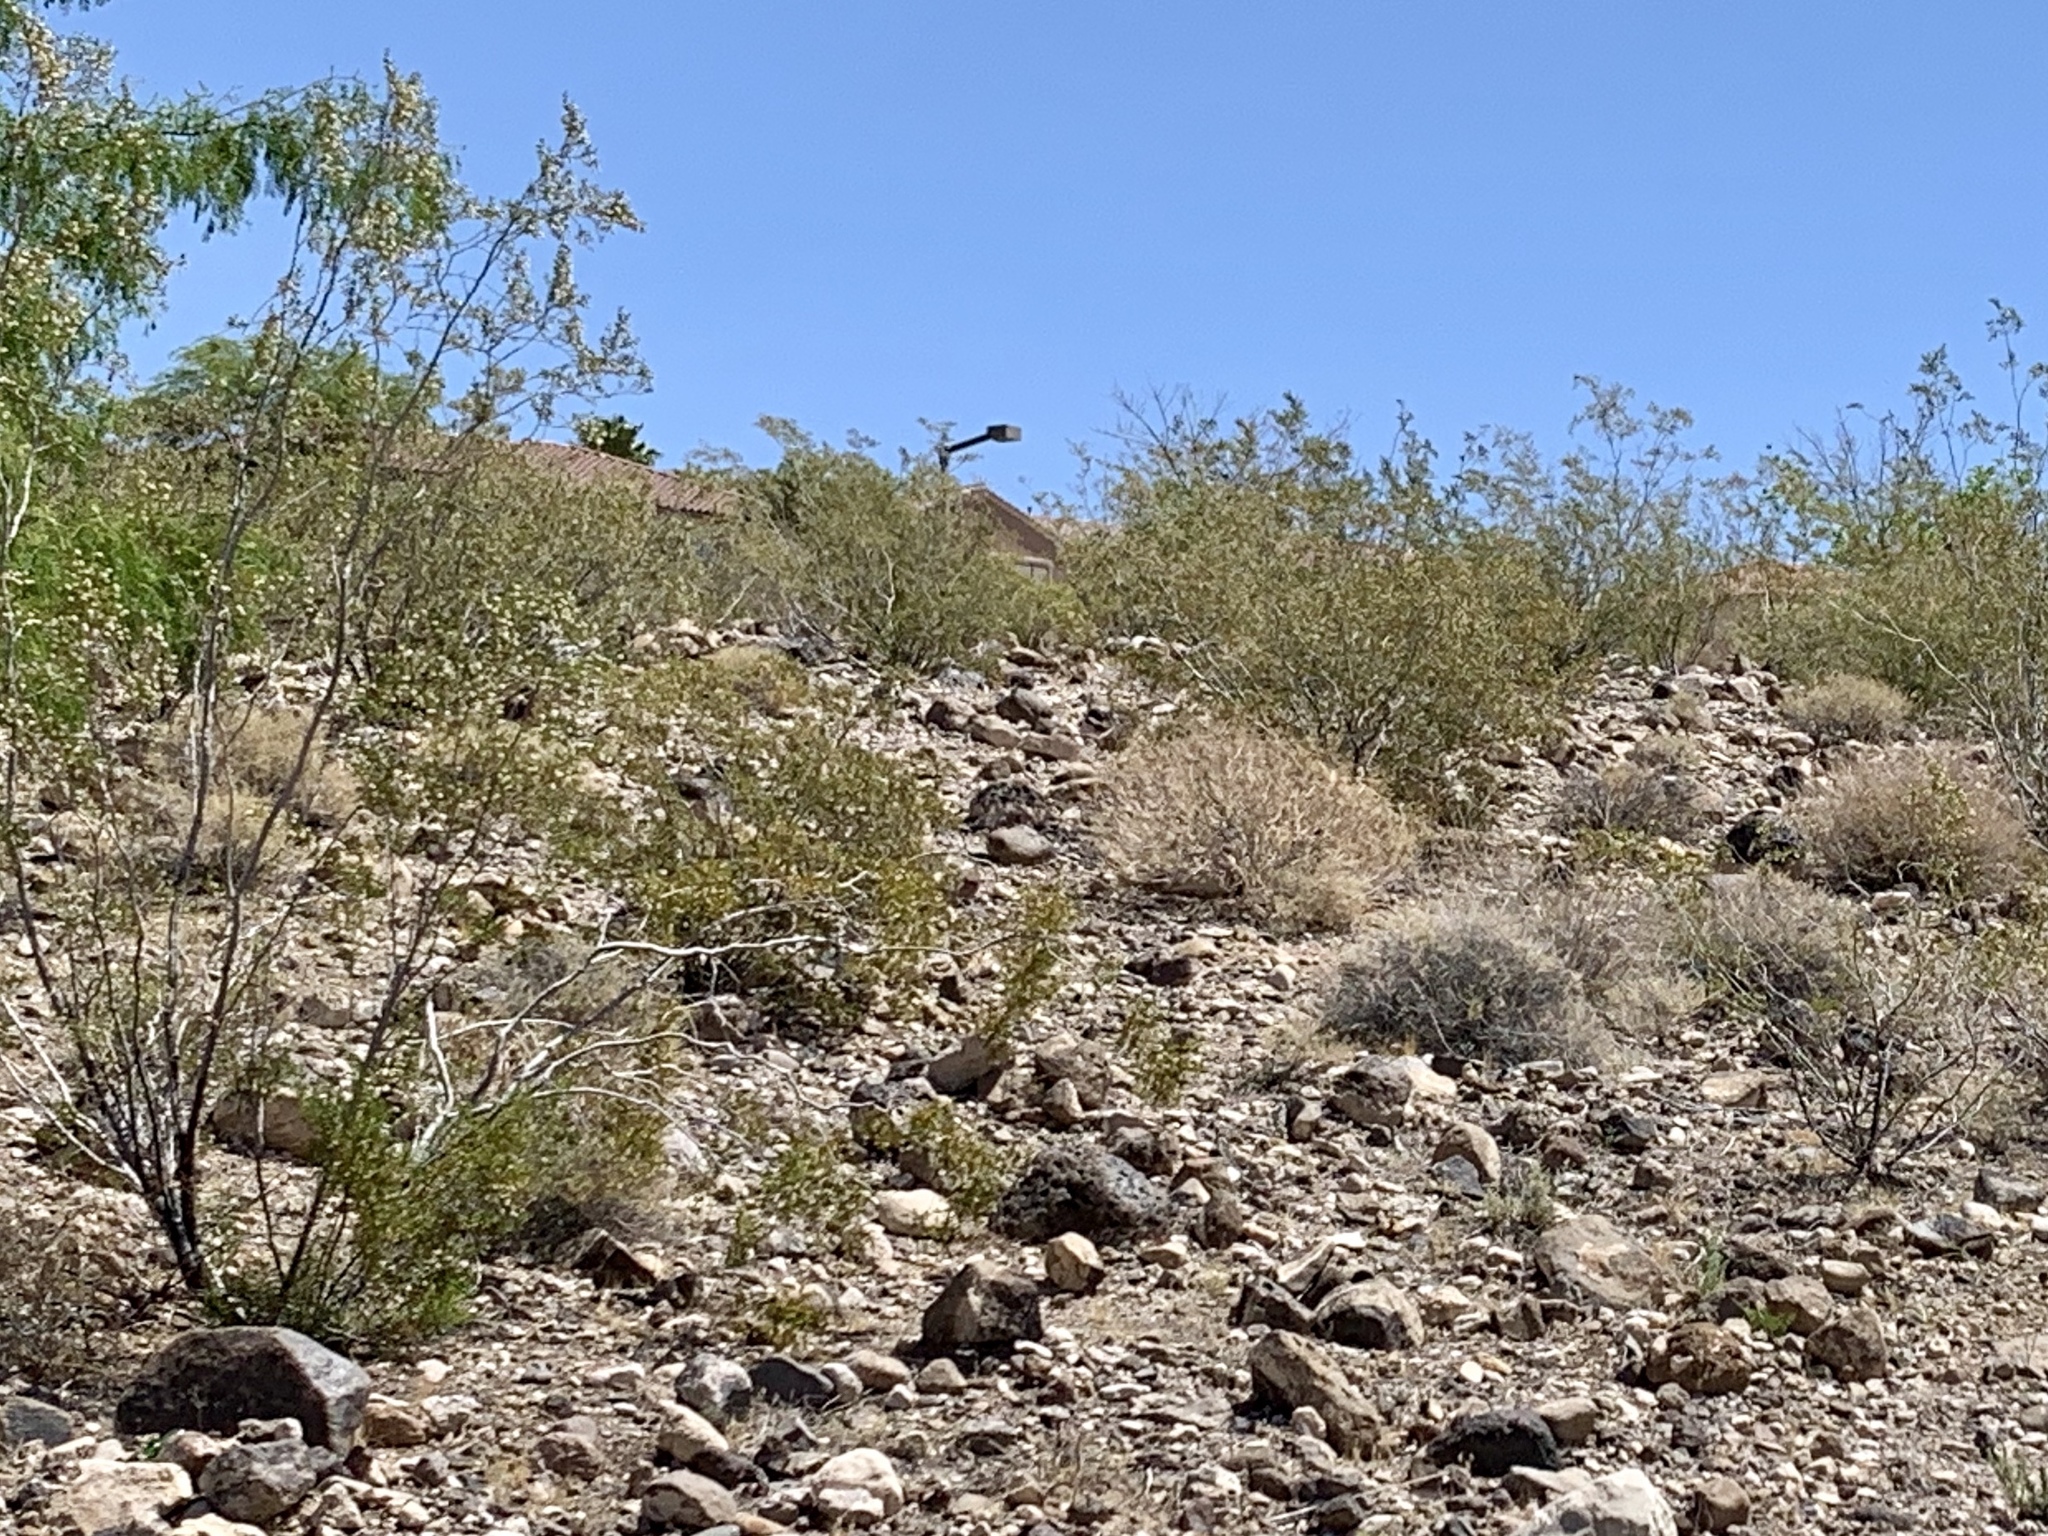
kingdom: Plantae
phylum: Tracheophyta
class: Magnoliopsida
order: Zygophyllales
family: Zygophyllaceae
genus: Larrea
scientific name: Larrea tridentata
